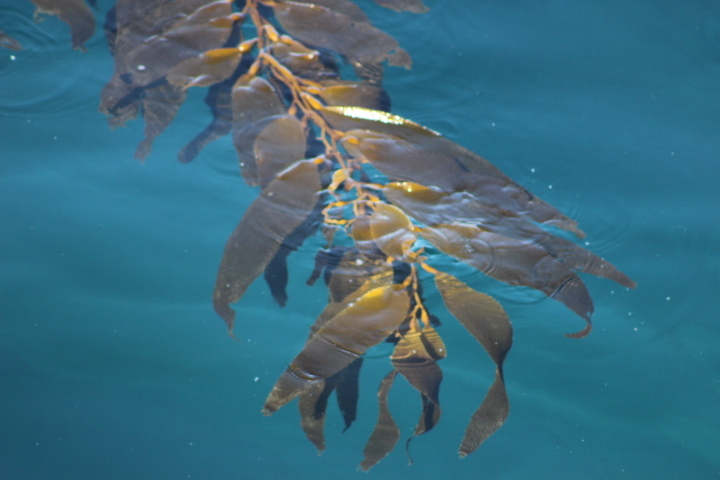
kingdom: Chromista
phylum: Ochrophyta
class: Phaeophyceae
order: Laminariales
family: Laminariaceae
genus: Macrocystis
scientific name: Macrocystis pyrifera
